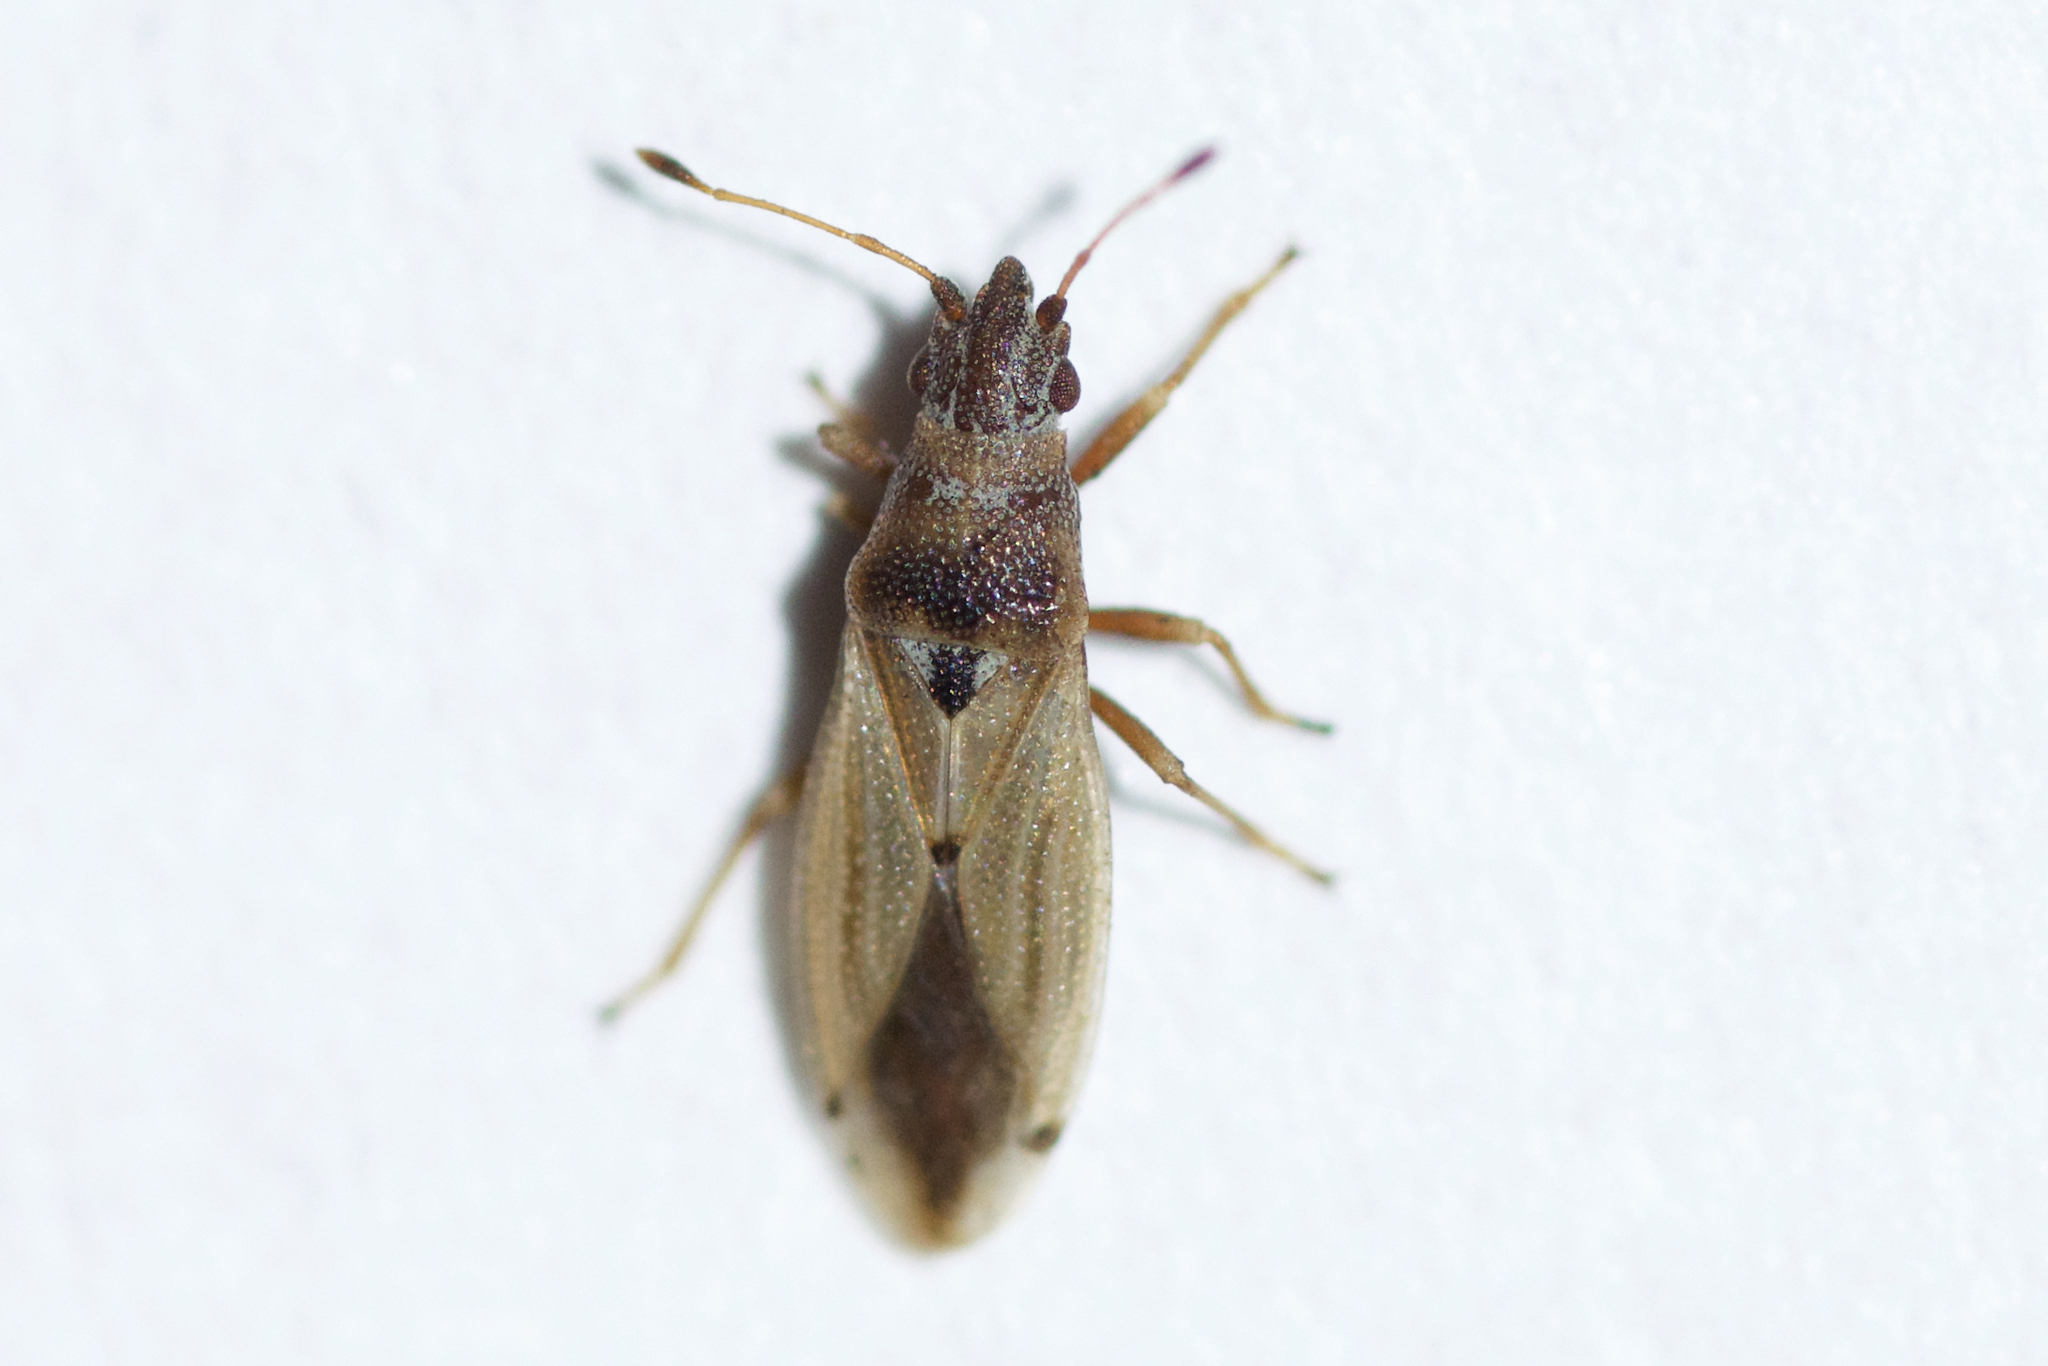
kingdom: Animalia
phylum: Arthropoda
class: Insecta
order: Hemiptera
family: Cymidae
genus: Cymus
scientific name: Cymus angustatus
